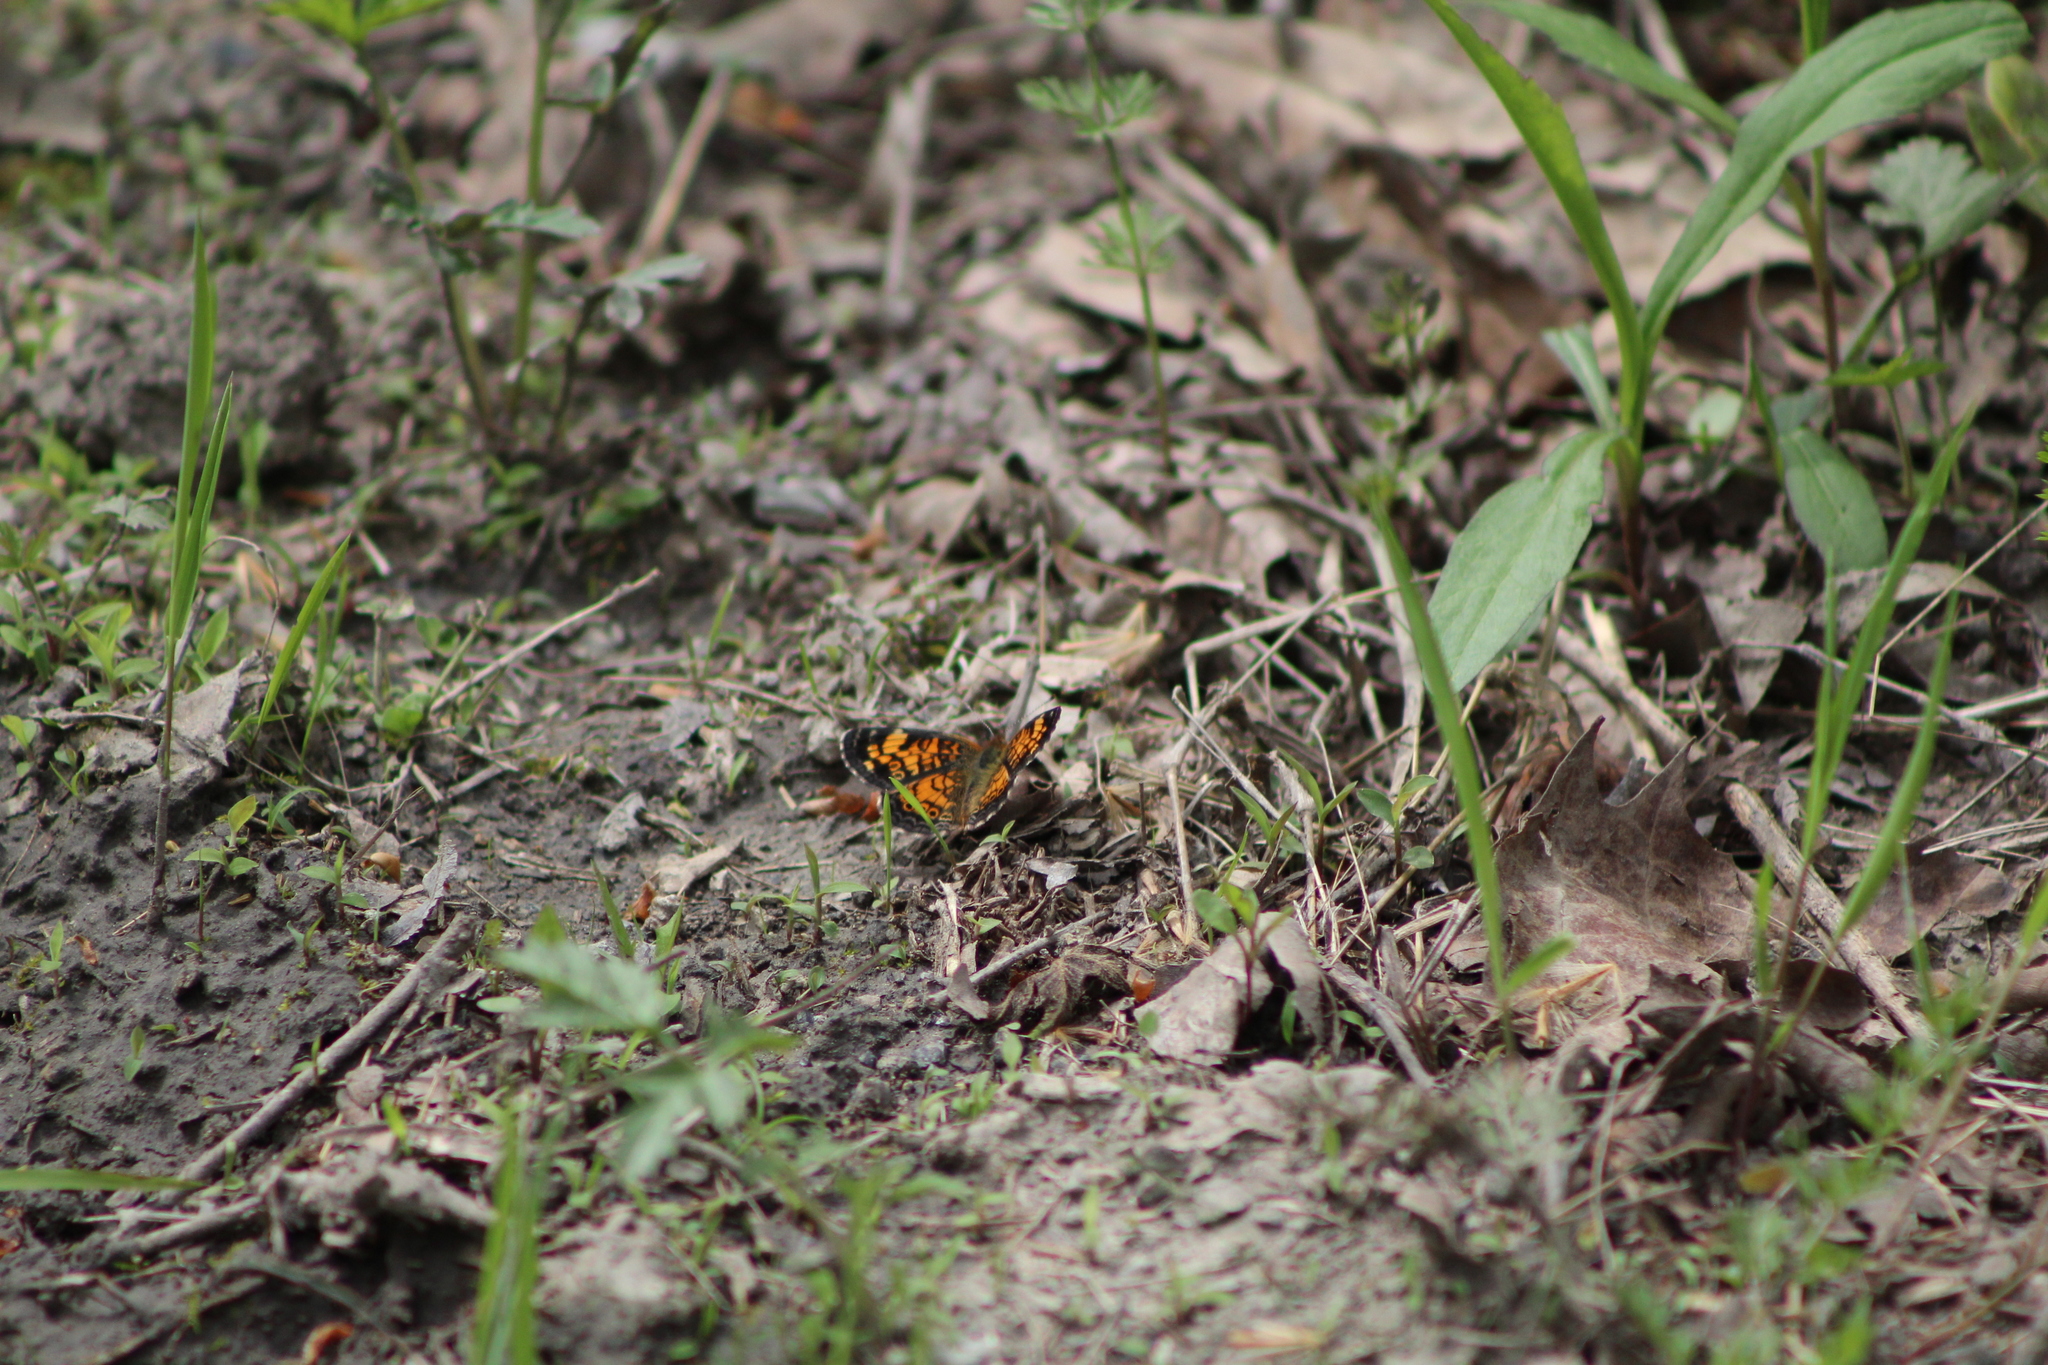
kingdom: Animalia
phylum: Arthropoda
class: Insecta
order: Lepidoptera
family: Nymphalidae
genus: Phyciodes
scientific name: Phyciodes tharos
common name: Pearl crescent
